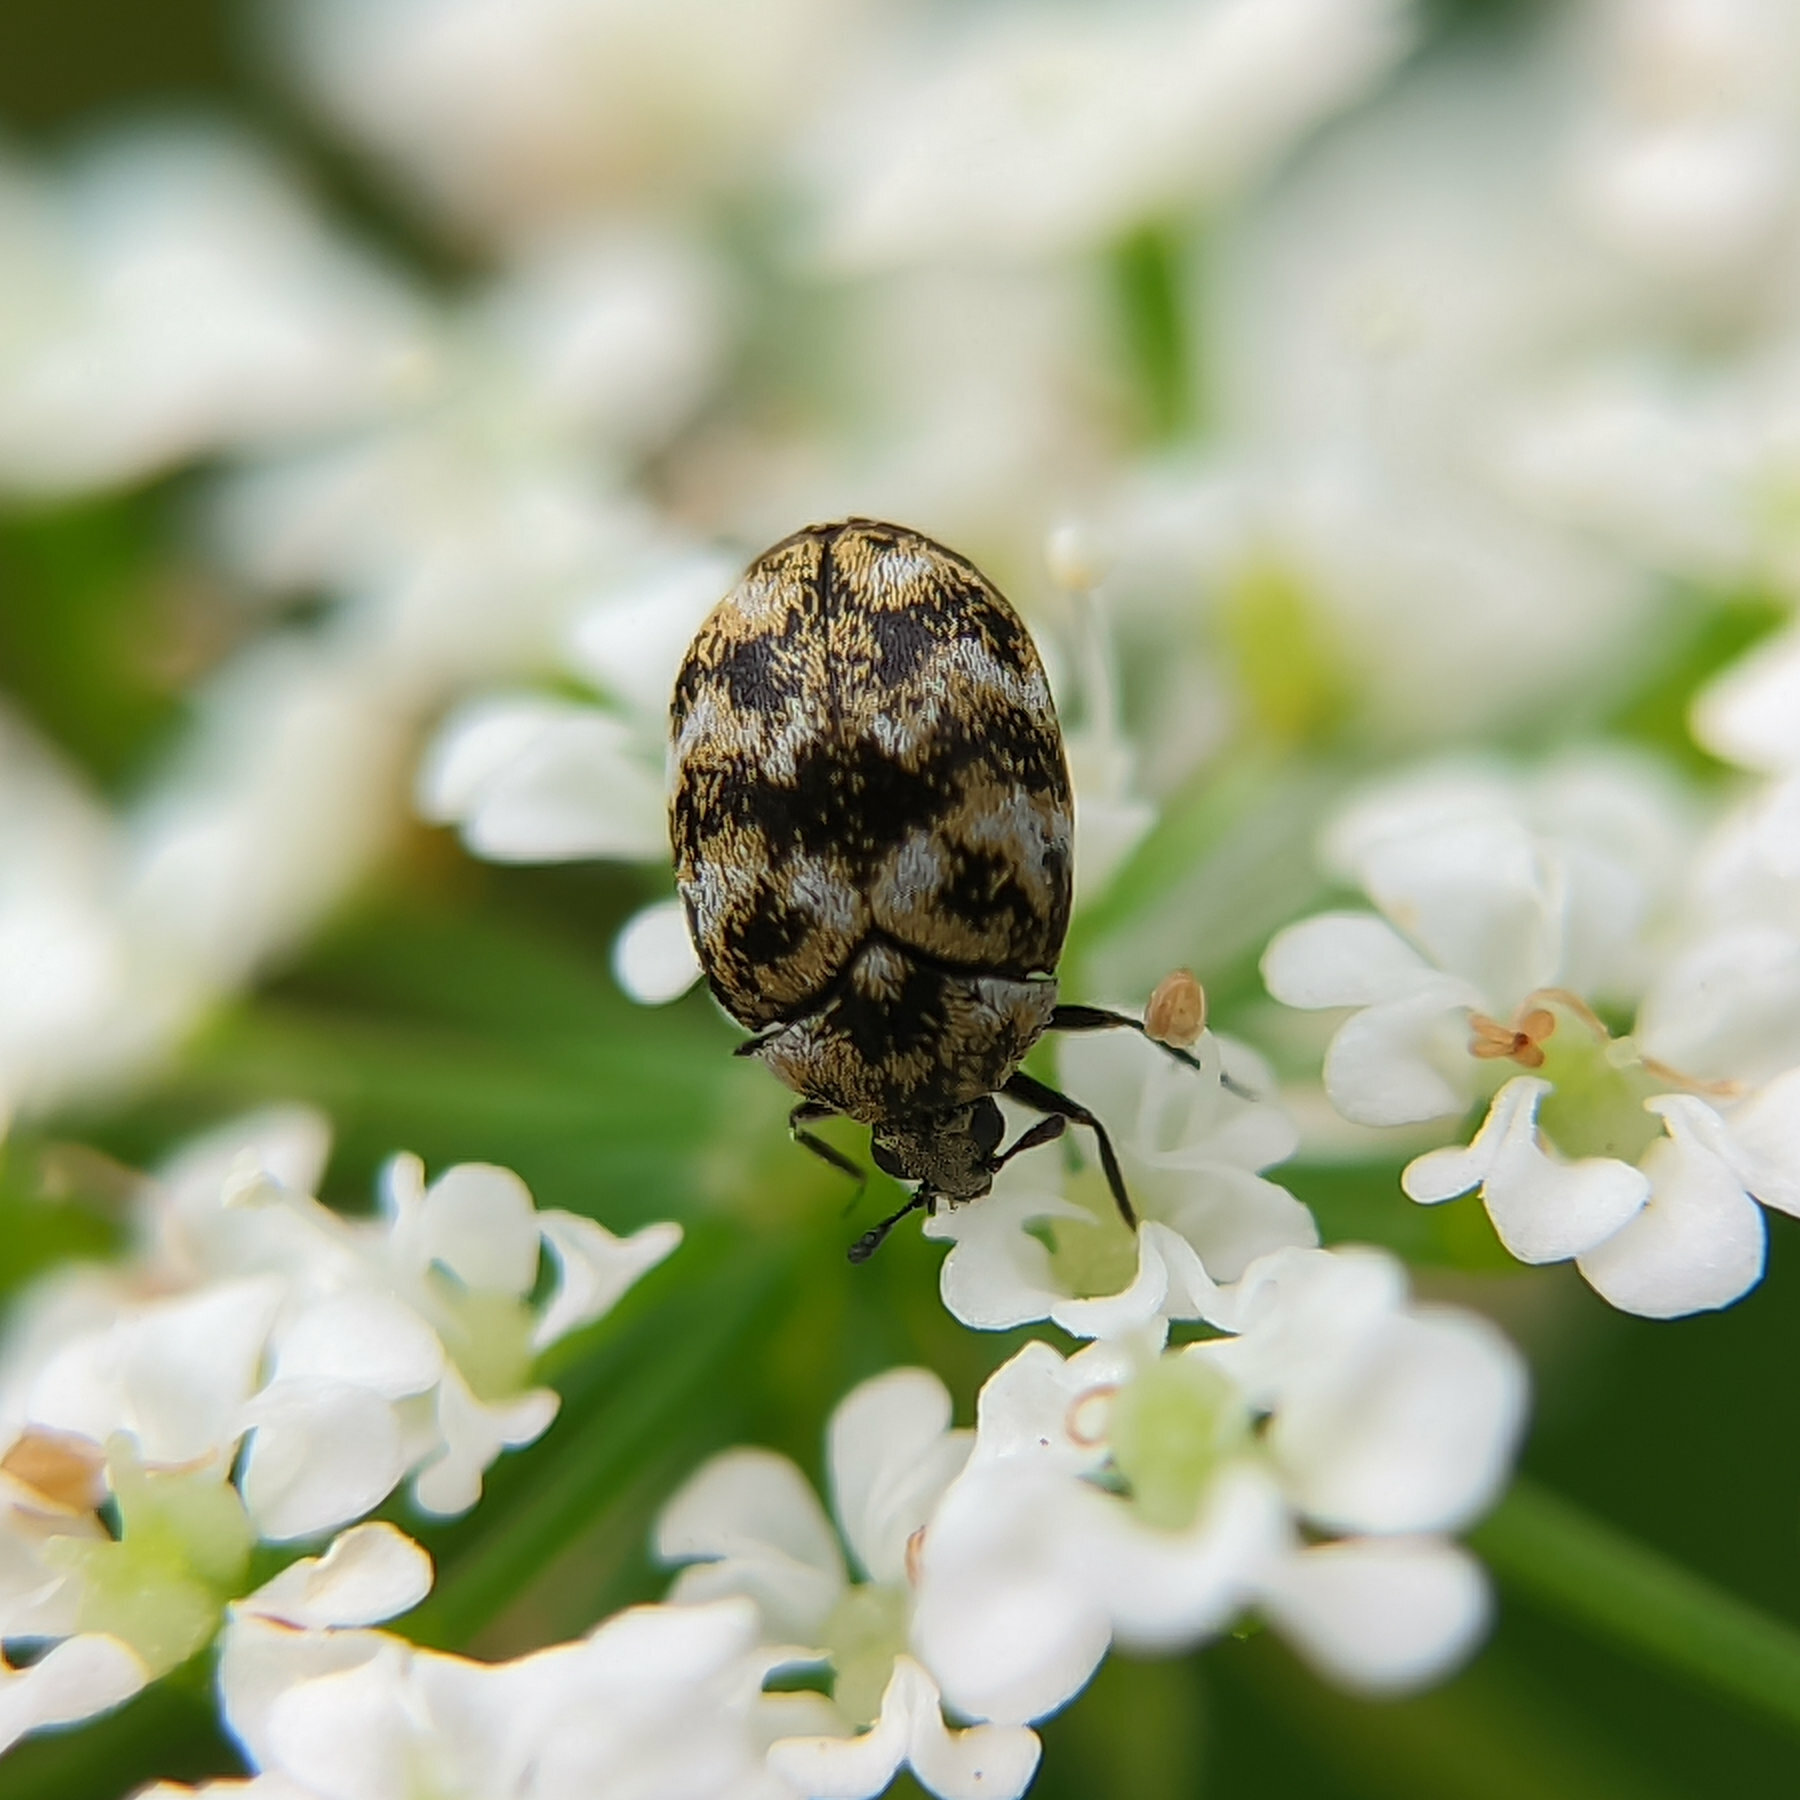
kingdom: Animalia
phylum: Arthropoda
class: Insecta
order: Coleoptera
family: Dermestidae
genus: Anthrenus
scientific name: Anthrenus verbasci
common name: Varied carpet beetle
